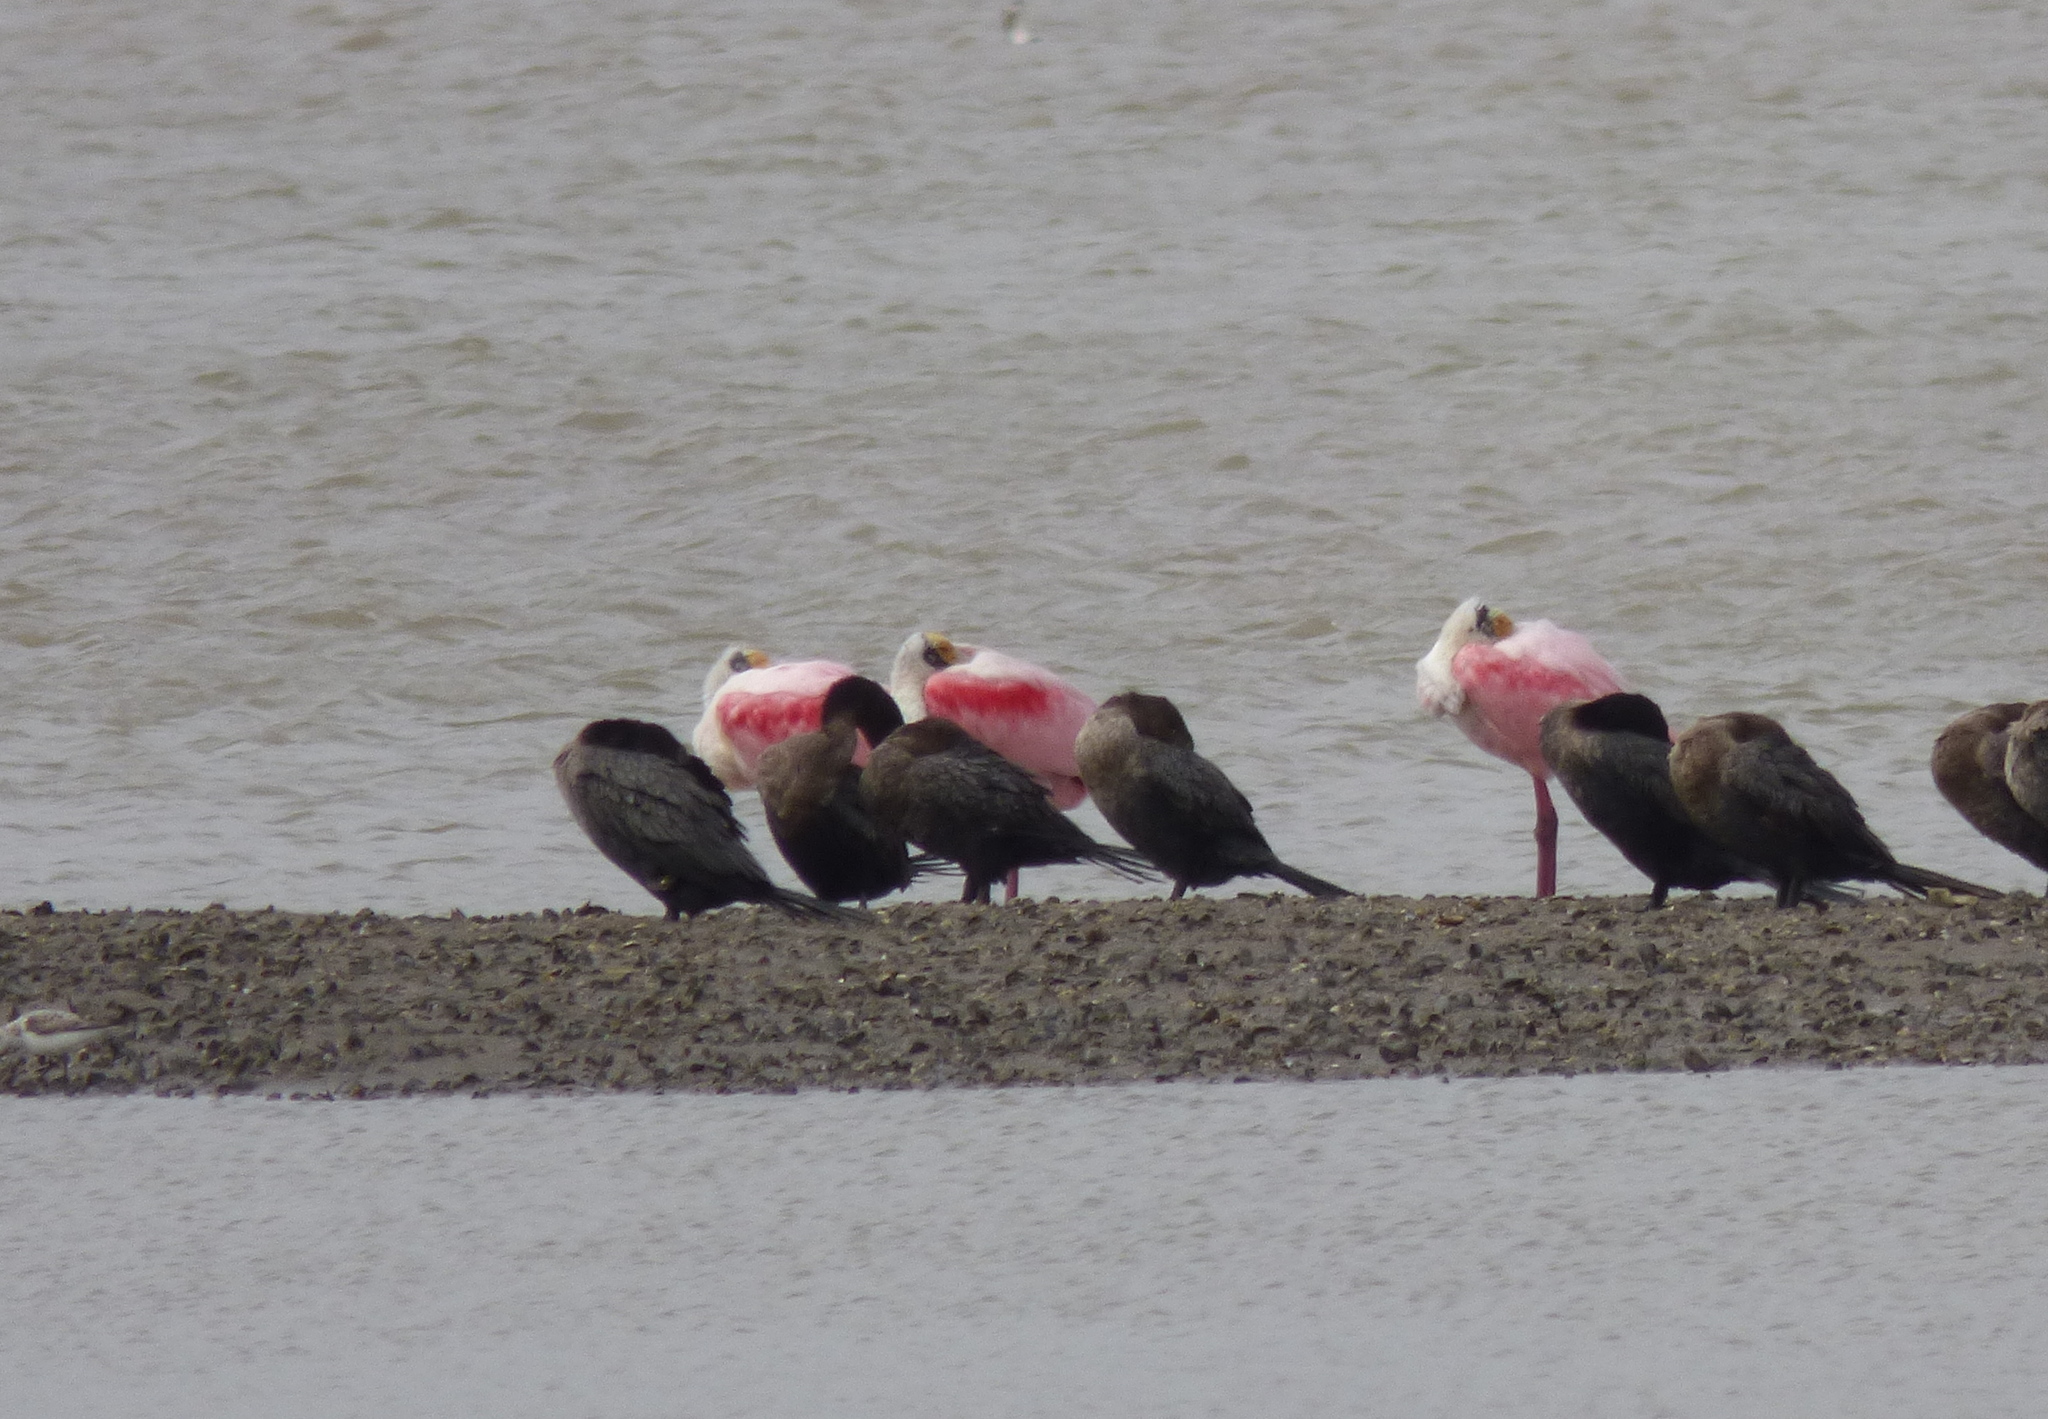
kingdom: Animalia
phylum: Chordata
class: Aves
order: Pelecaniformes
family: Threskiornithidae
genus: Platalea
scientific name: Platalea ajaja
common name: Roseate spoonbill
